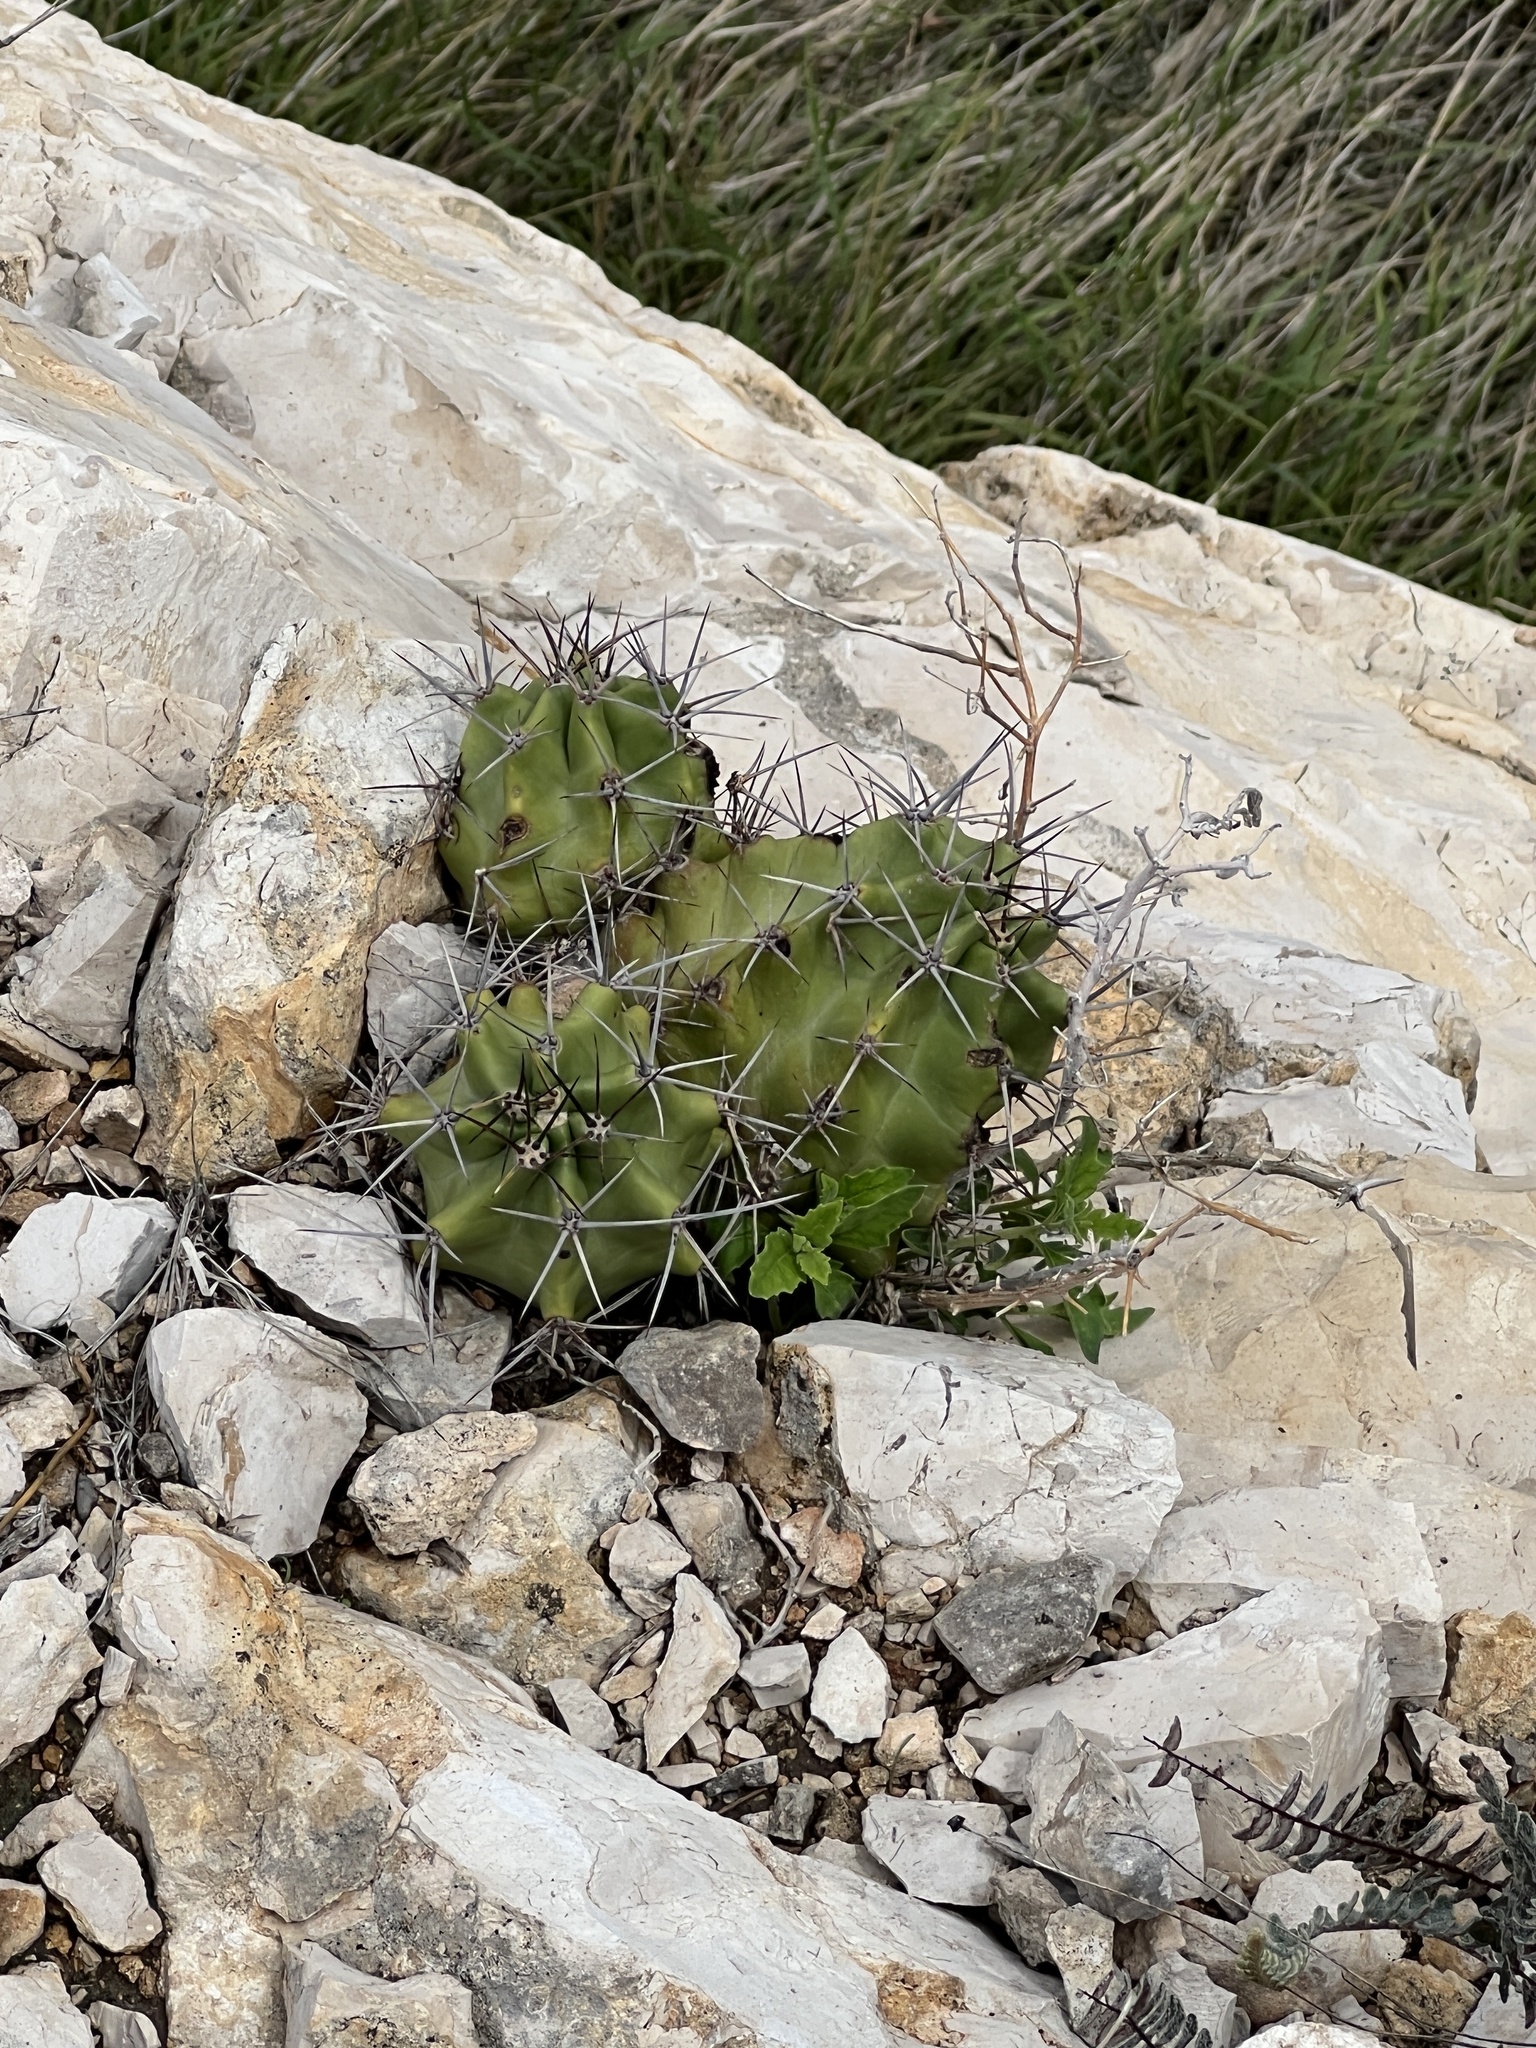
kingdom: Plantae
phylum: Tracheophyta
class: Magnoliopsida
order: Caryophyllales
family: Cactaceae
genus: Echinocereus
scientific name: Echinocereus coccineus
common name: Scarlet hedgehog cactus
